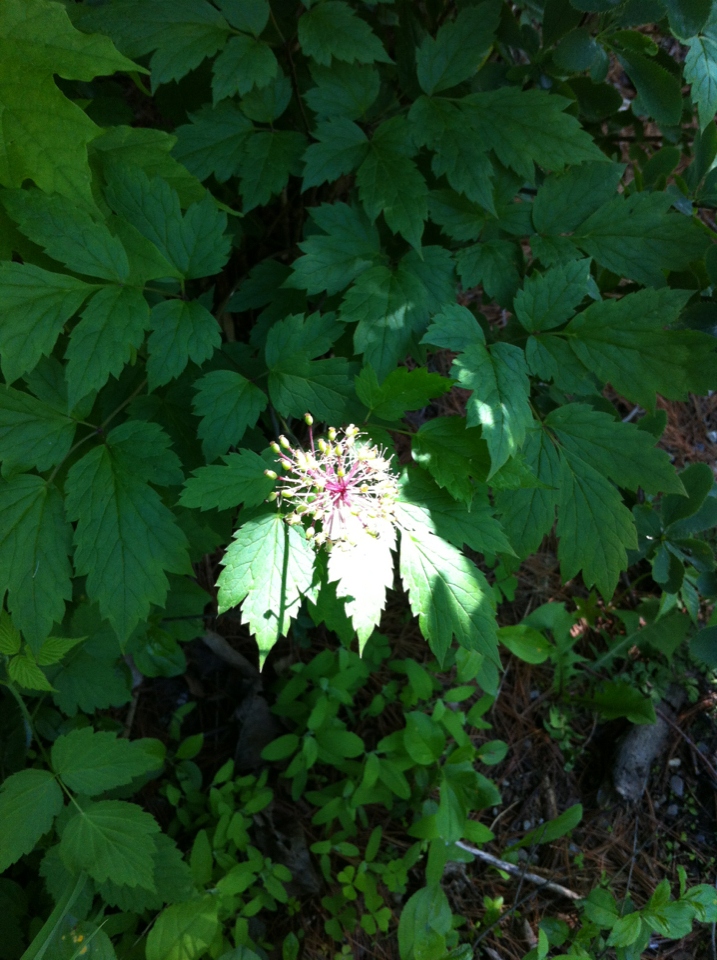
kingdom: Plantae
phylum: Tracheophyta
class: Magnoliopsida
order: Ranunculales
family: Ranunculaceae
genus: Actaea
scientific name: Actaea rubra
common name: Red baneberry
